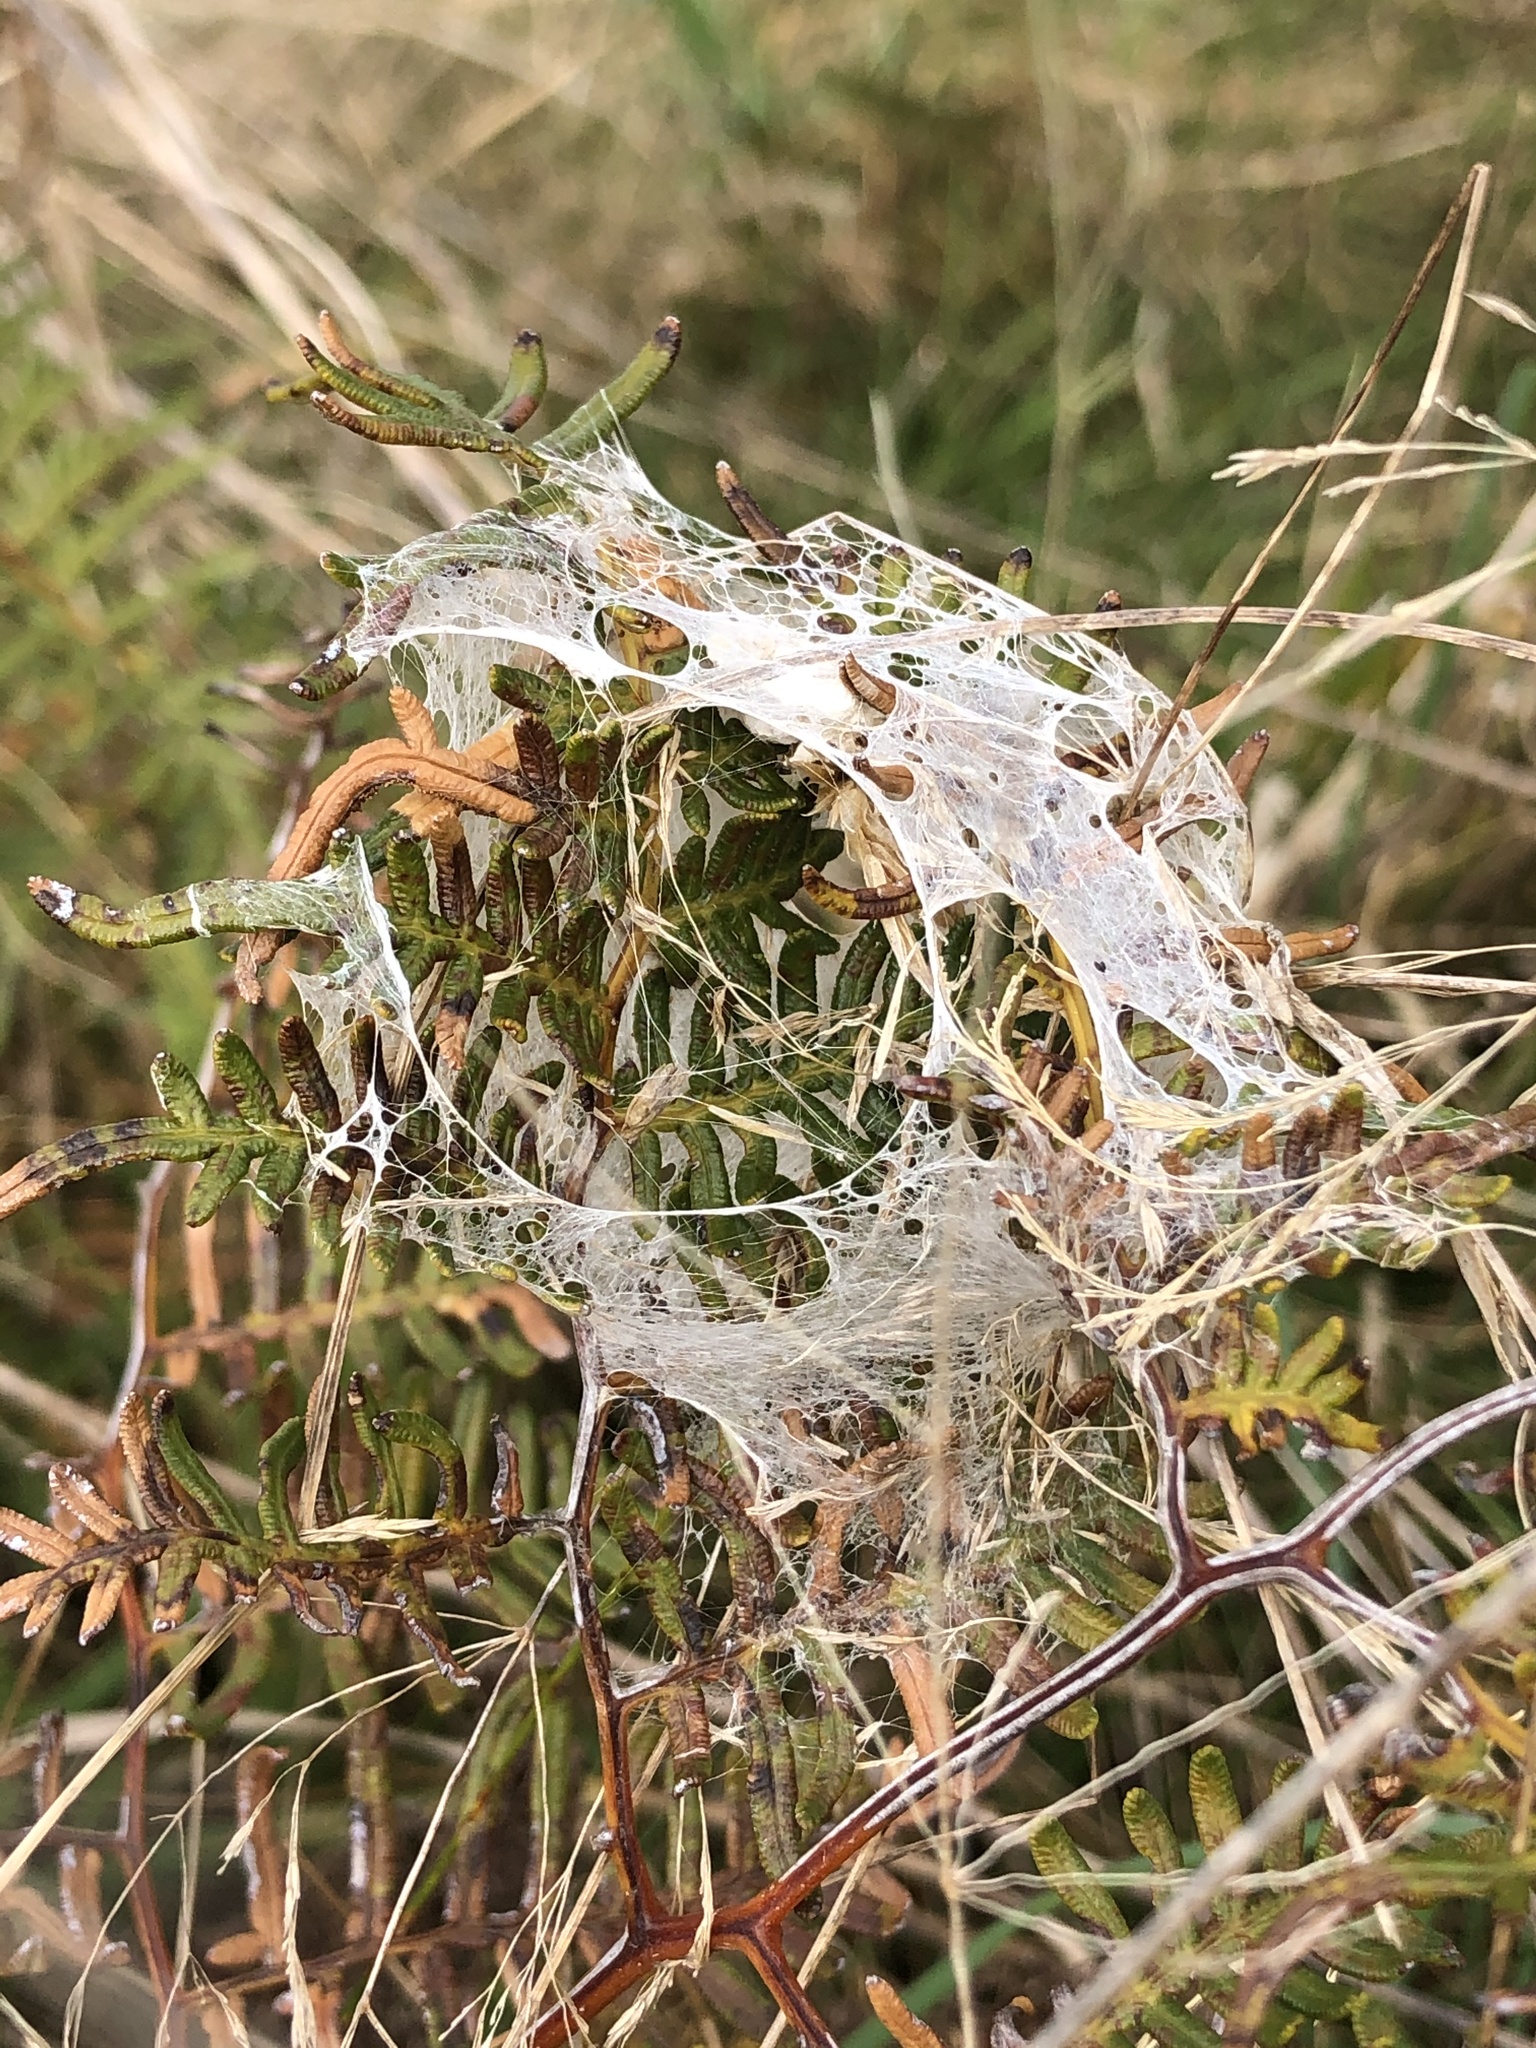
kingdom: Animalia
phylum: Arthropoda
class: Arachnida
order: Araneae
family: Pisauridae
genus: Dolomedes
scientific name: Dolomedes minor
